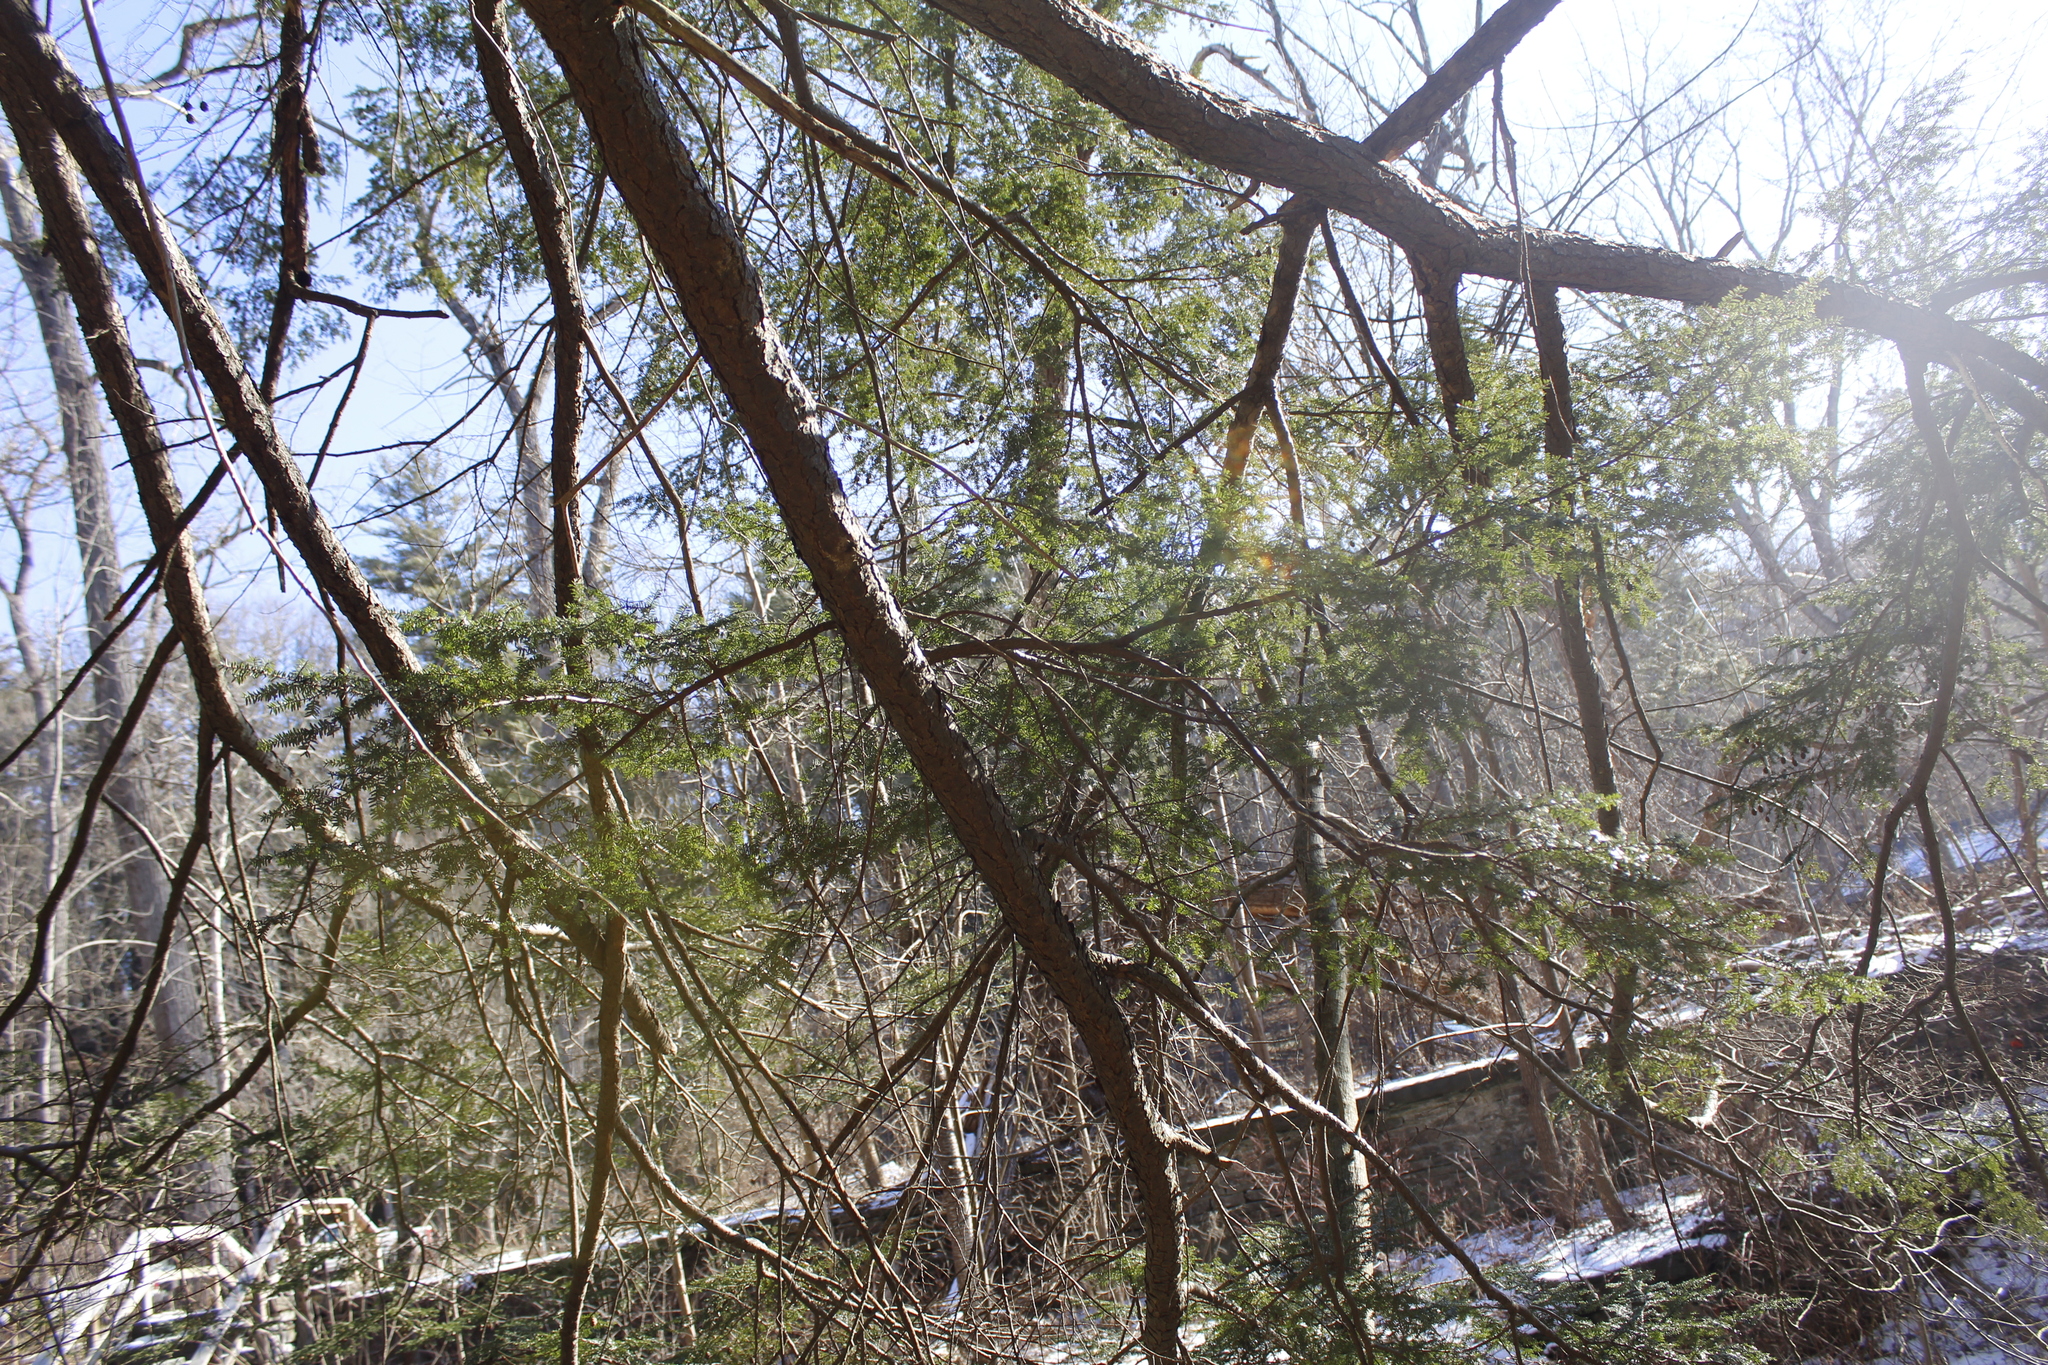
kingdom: Plantae
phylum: Tracheophyta
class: Pinopsida
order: Pinales
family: Pinaceae
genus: Tsuga
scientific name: Tsuga canadensis
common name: Eastern hemlock
